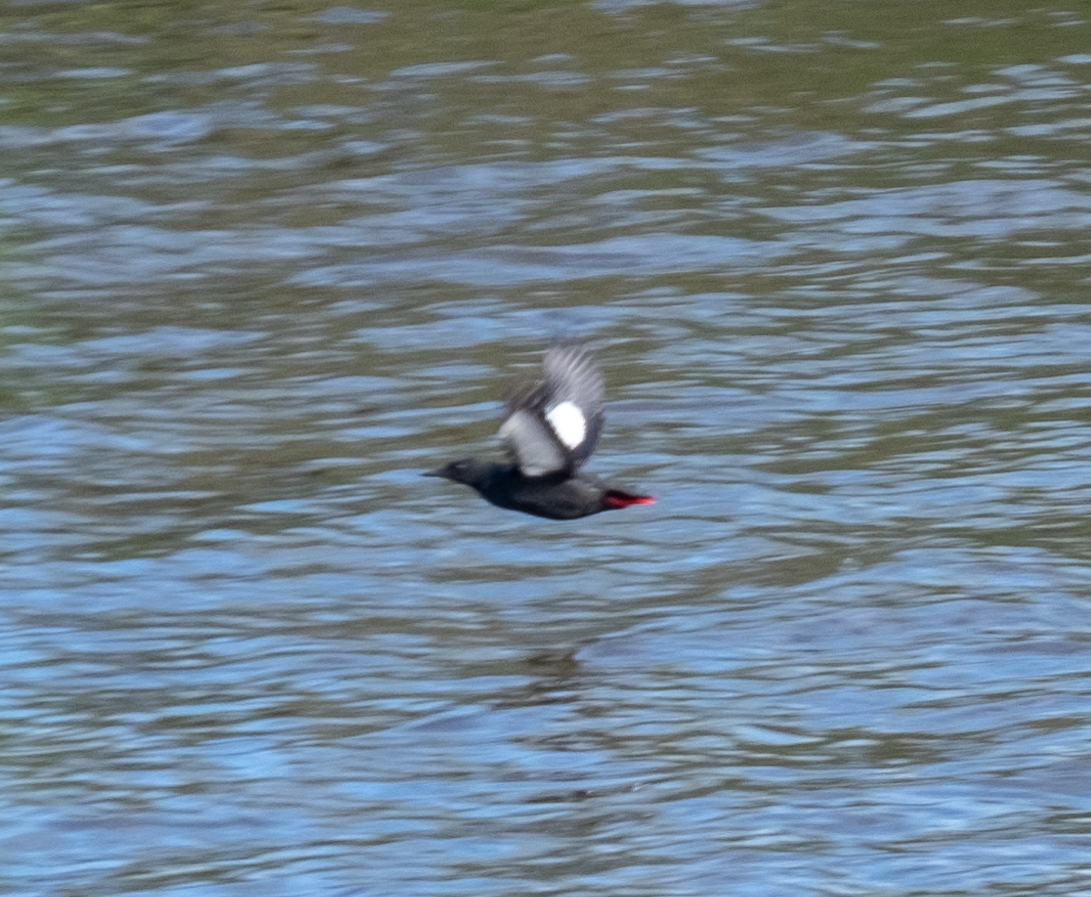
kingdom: Animalia
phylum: Chordata
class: Aves
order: Charadriiformes
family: Alcidae
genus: Cepphus
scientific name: Cepphus grylle
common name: Black guillemot
